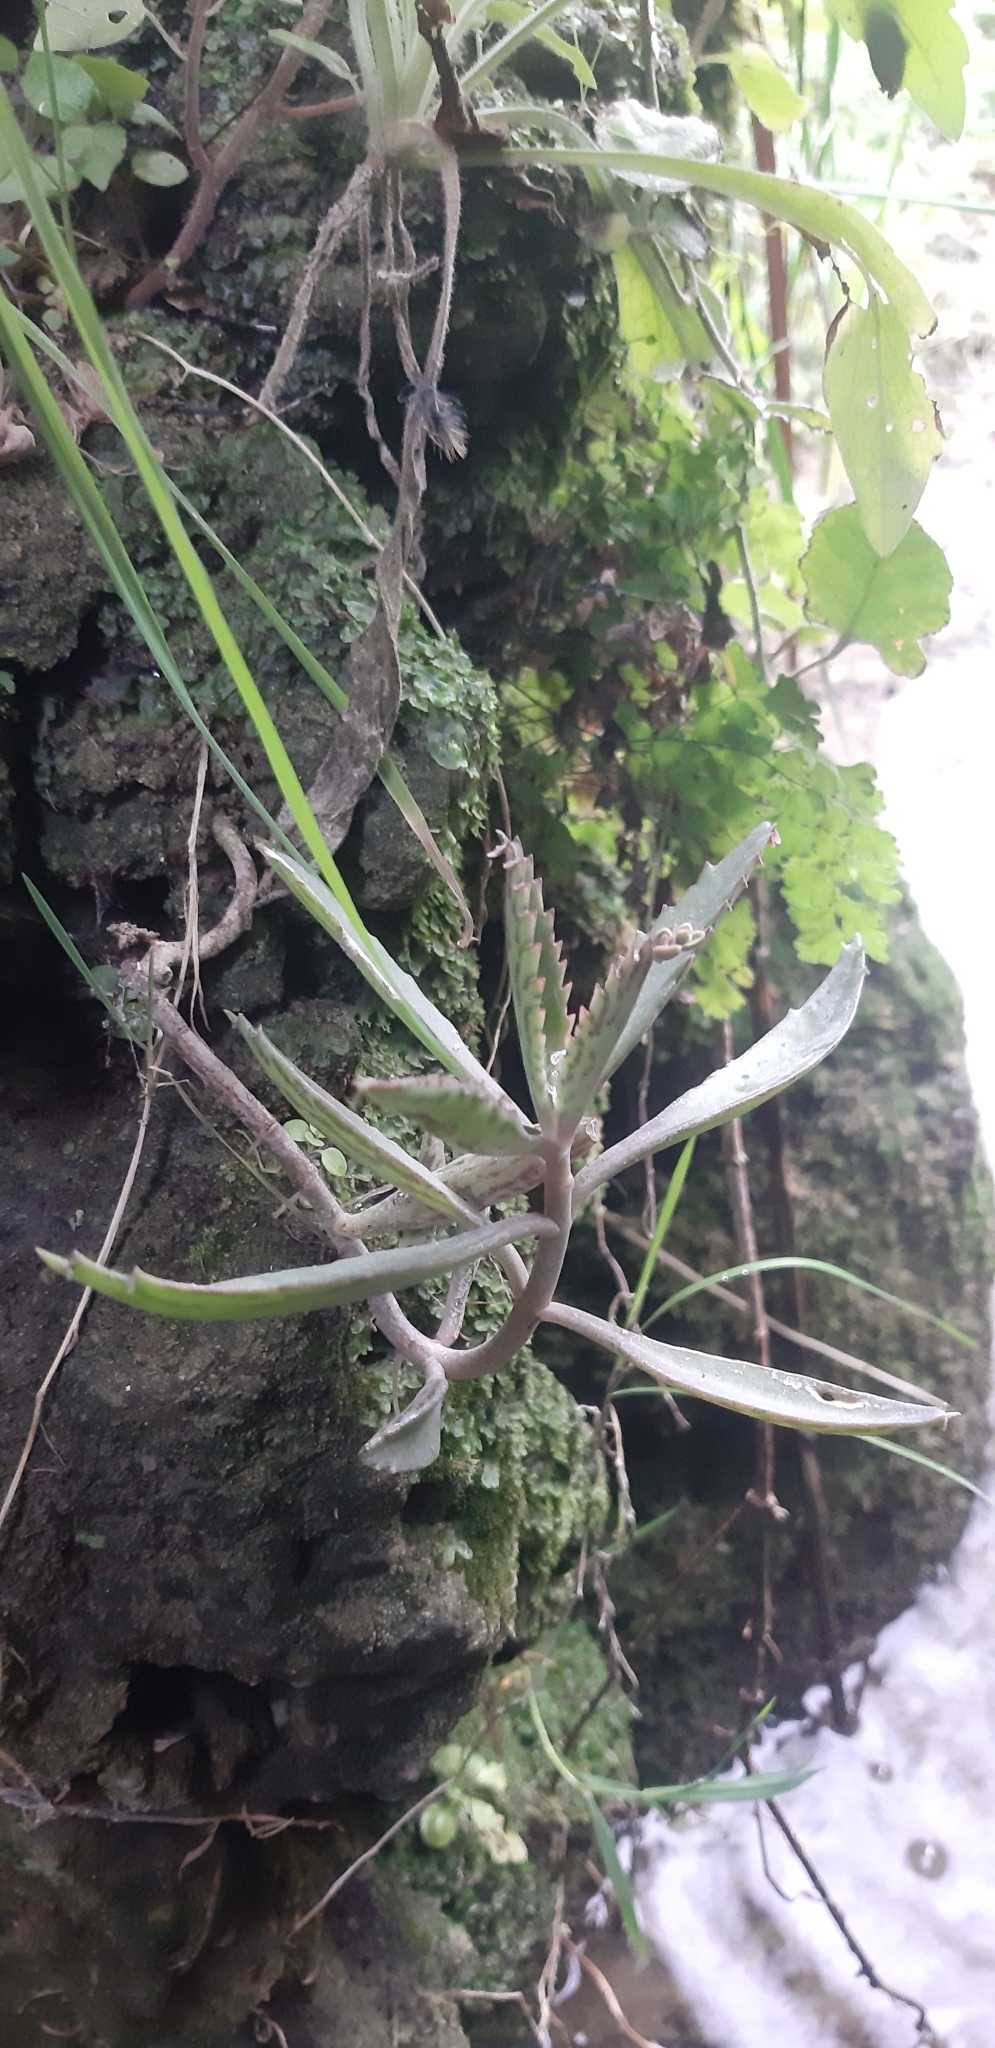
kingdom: Plantae
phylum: Tracheophyta
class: Magnoliopsida
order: Saxifragales
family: Crassulaceae
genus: Kalanchoe
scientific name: Kalanchoe houghtonii
